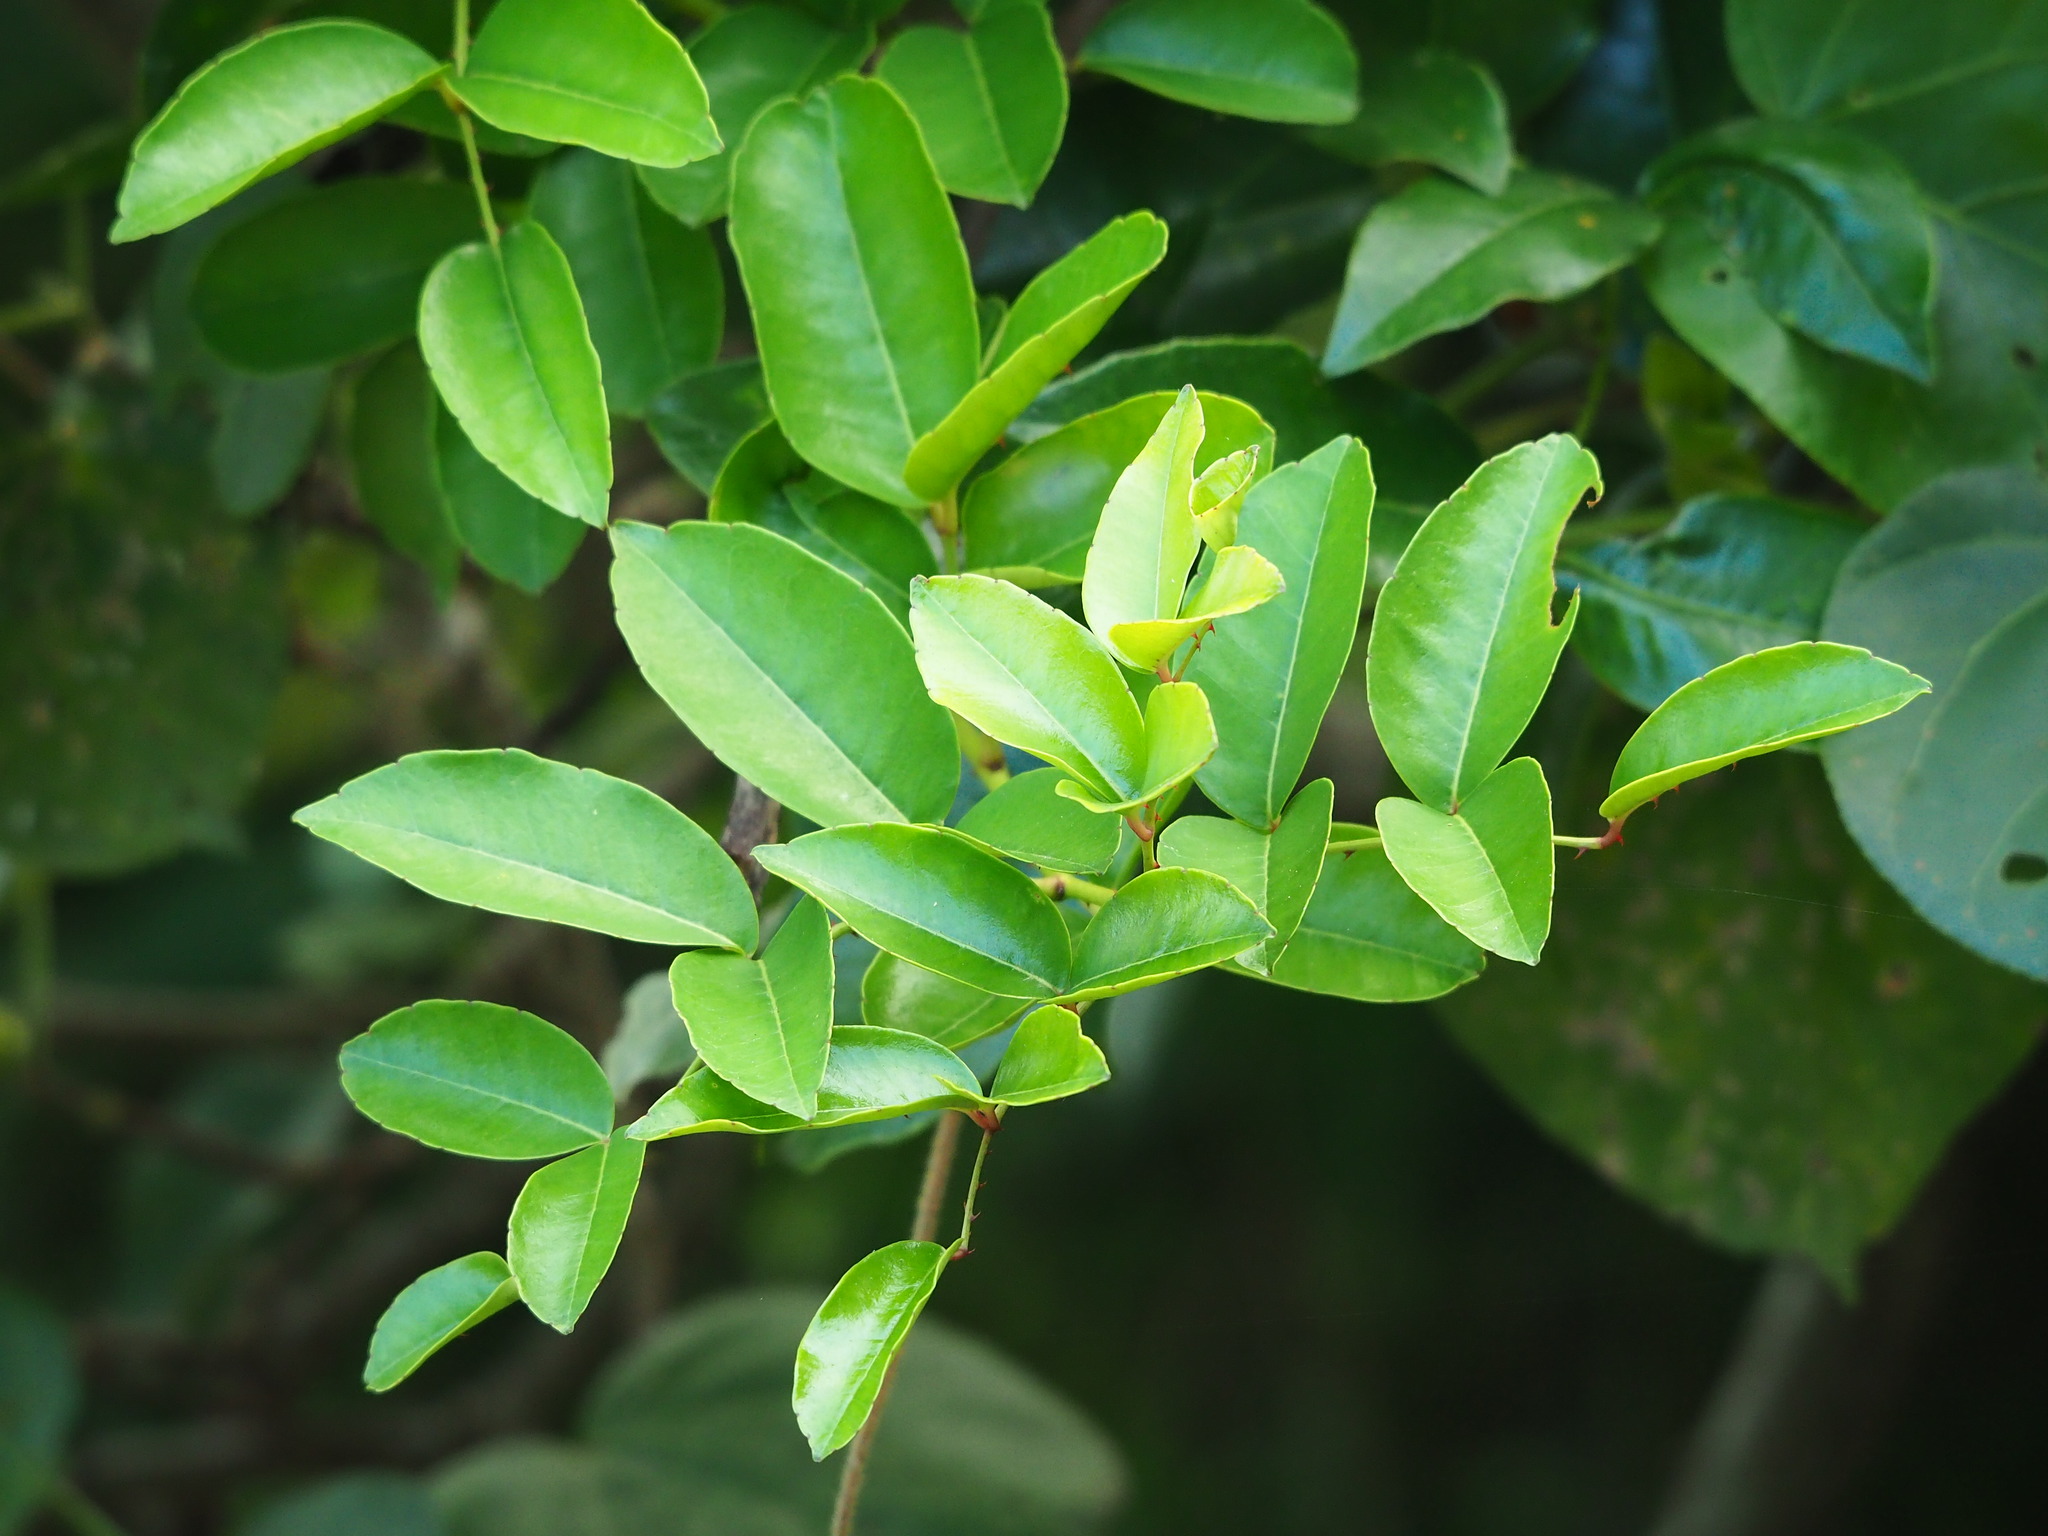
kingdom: Plantae
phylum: Tracheophyta
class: Magnoliopsida
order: Sapindales
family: Rutaceae
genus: Zanthoxylum
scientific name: Zanthoxylum nitidum
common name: Shiny-leaf prickly-ash
